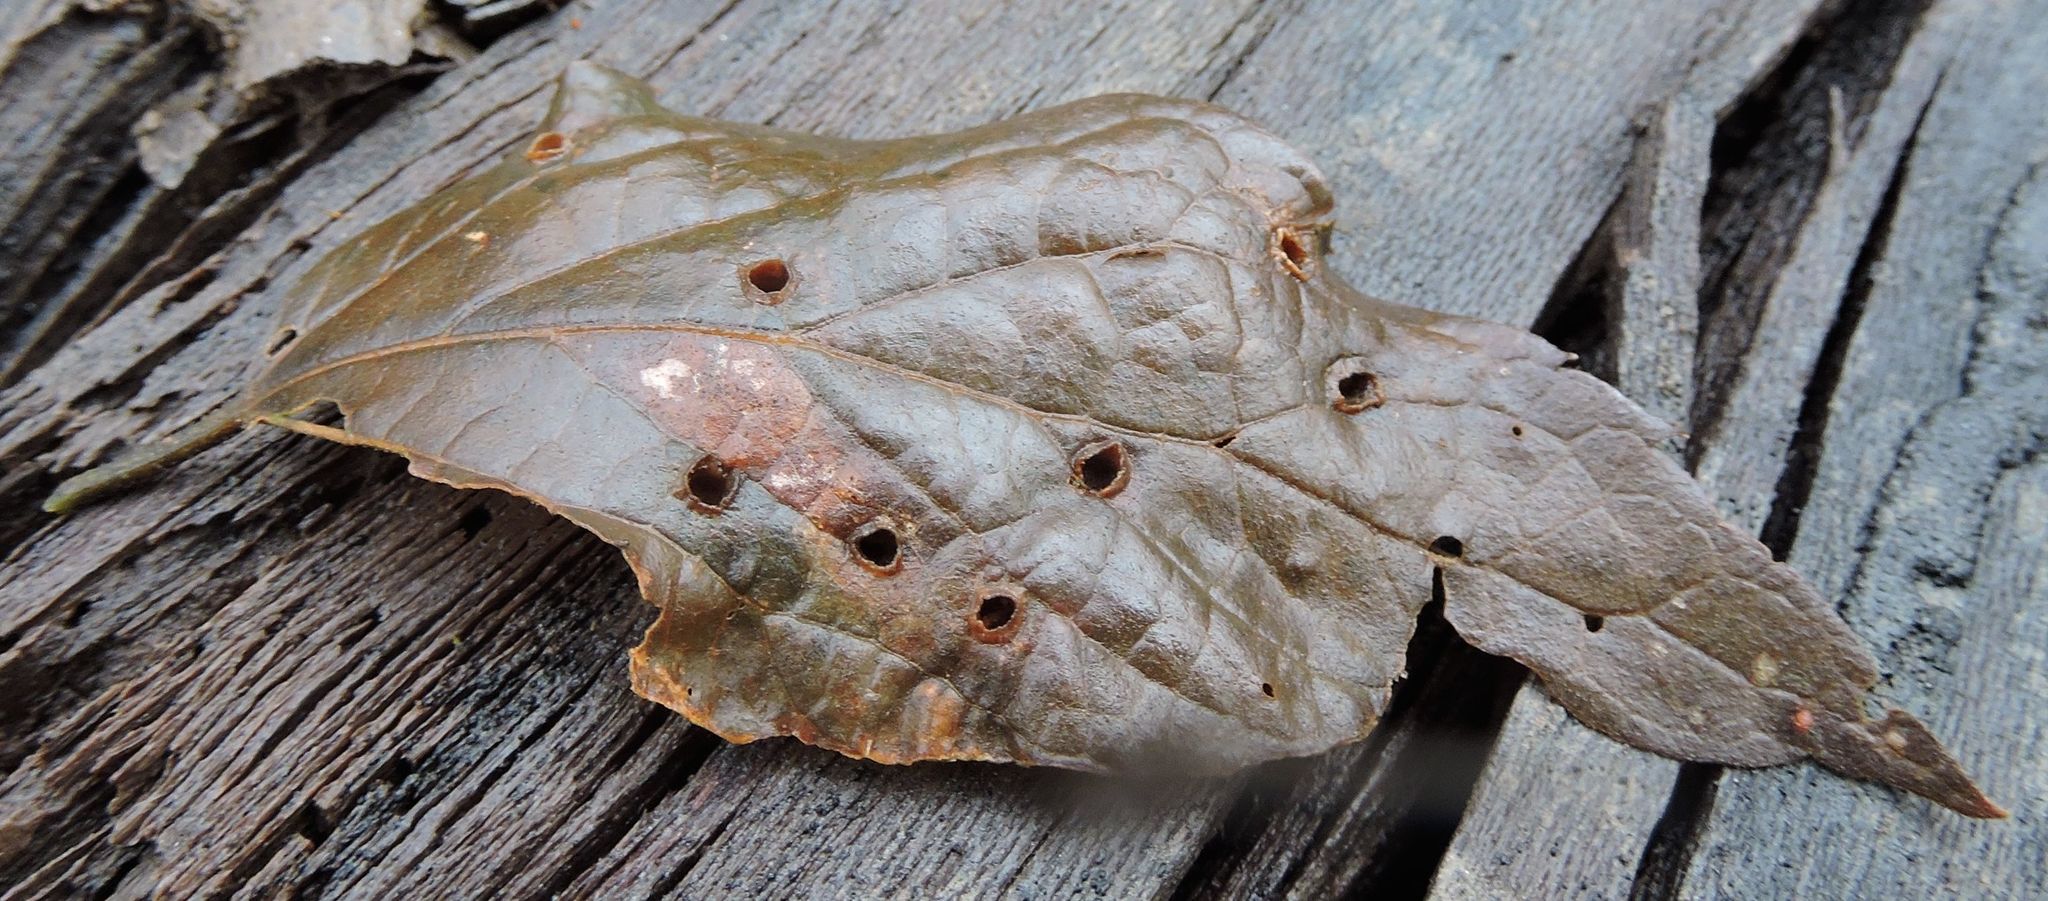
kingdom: Animalia
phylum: Arthropoda
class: Insecta
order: Hemiptera
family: Aphalaridae
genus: Pachypsylla
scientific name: Pachypsylla celtidismamma
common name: Hackberry nipplegall psyllid
